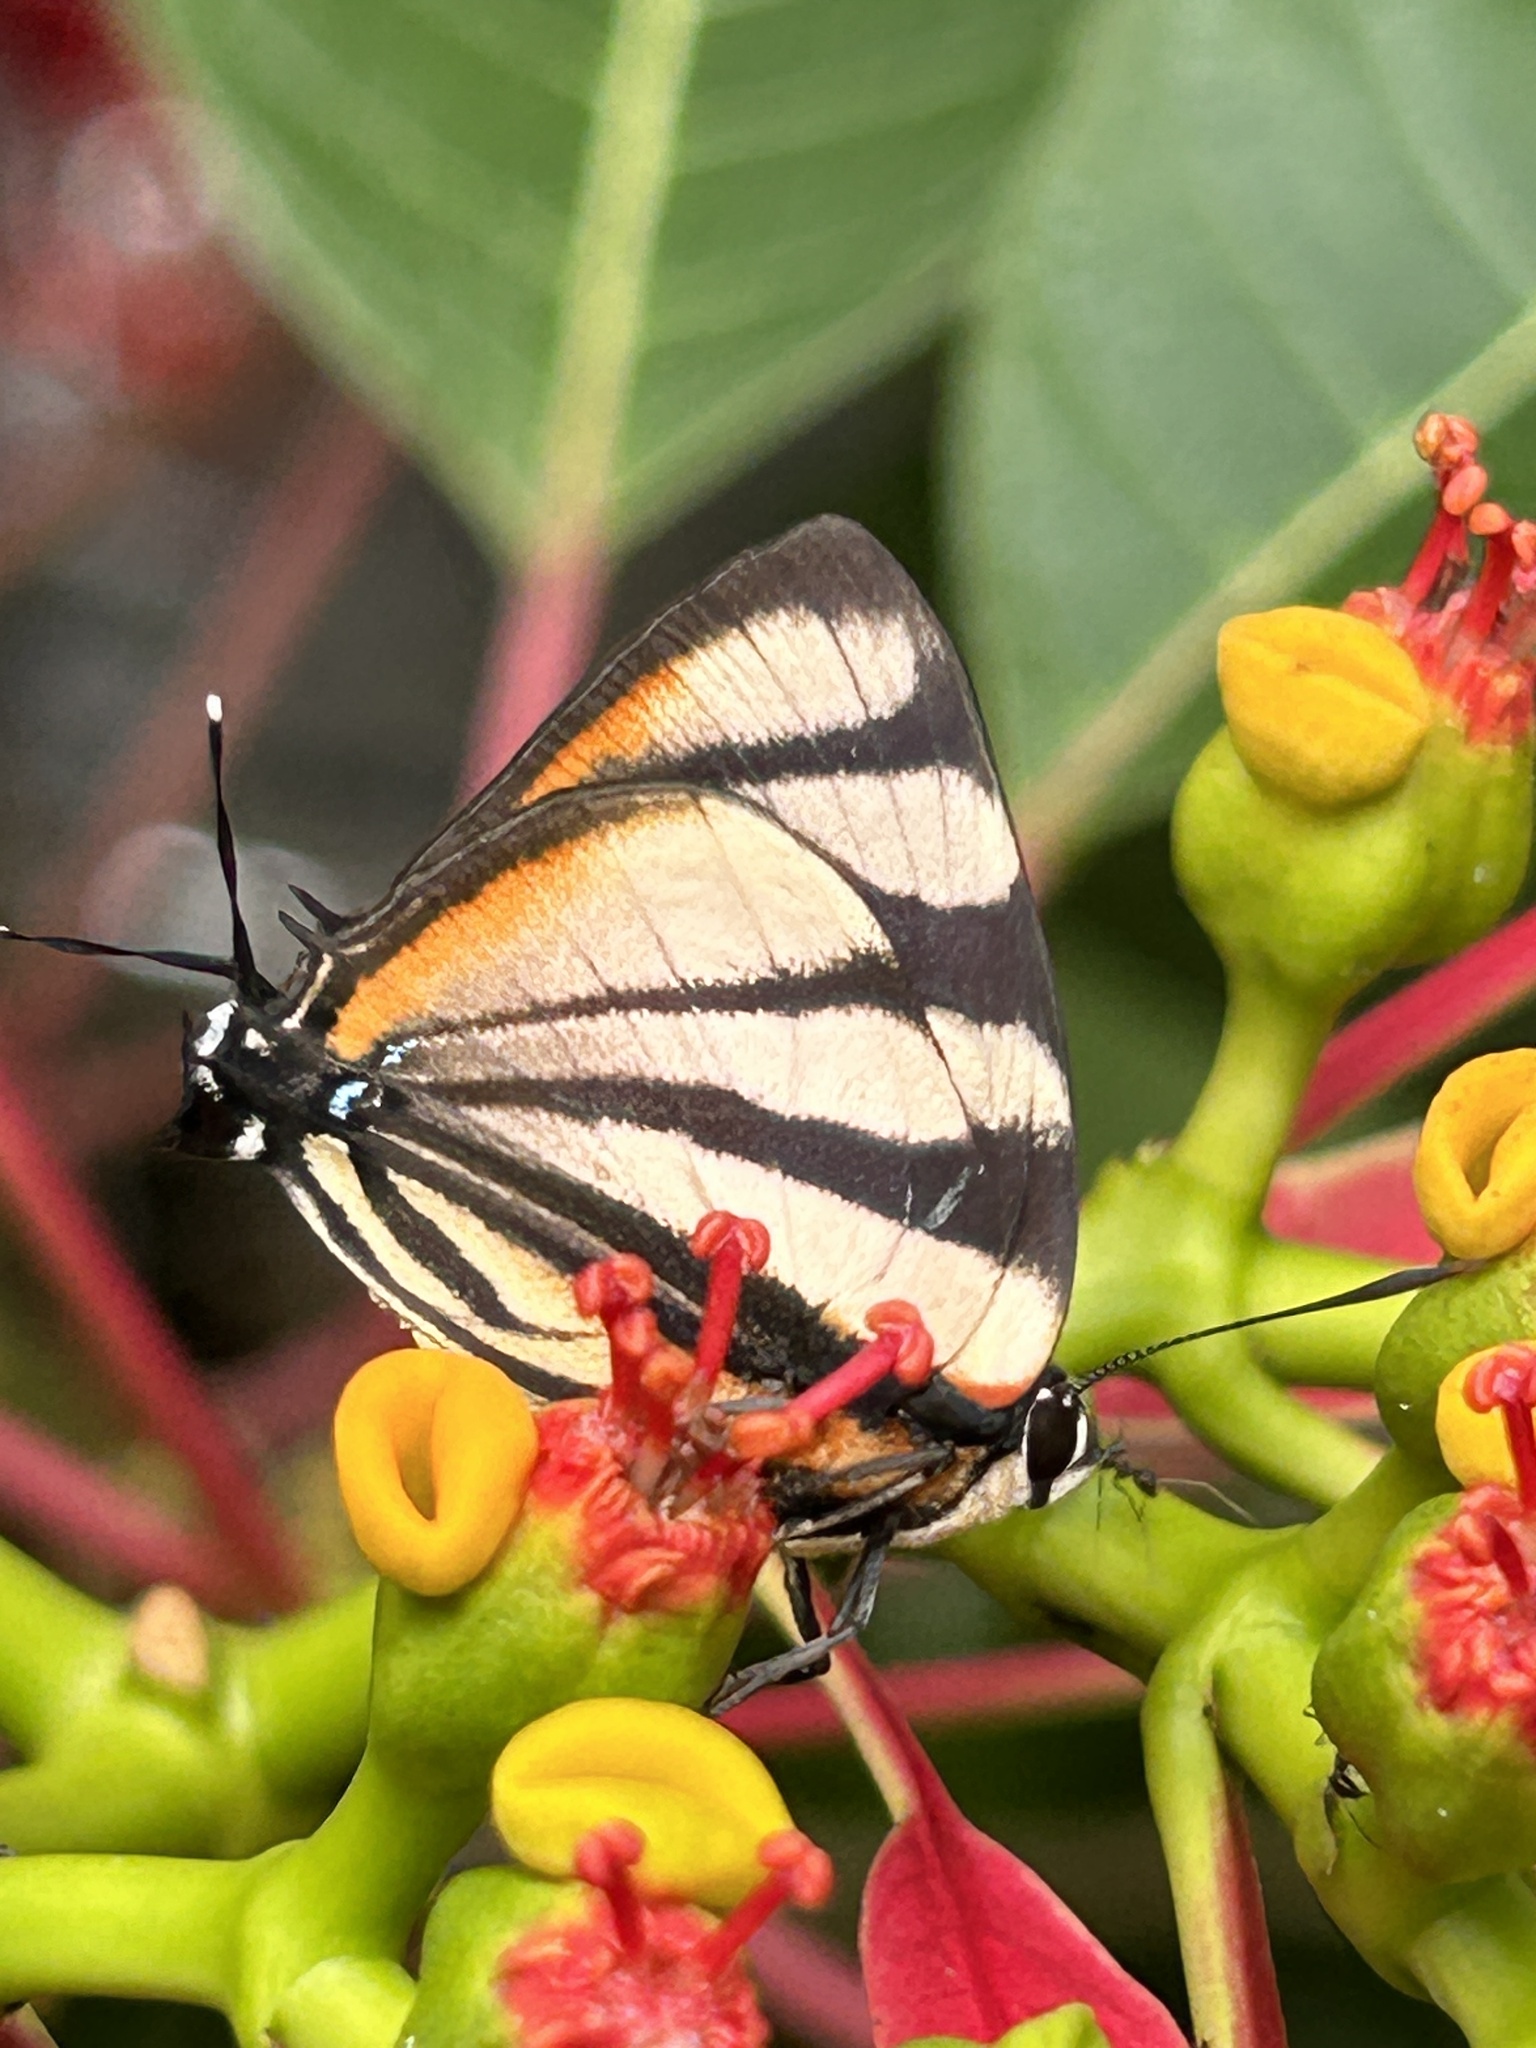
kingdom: Animalia
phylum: Arthropoda
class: Insecta
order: Lepidoptera
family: Lycaenidae
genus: Cycnus
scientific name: Cycnus phaleros
